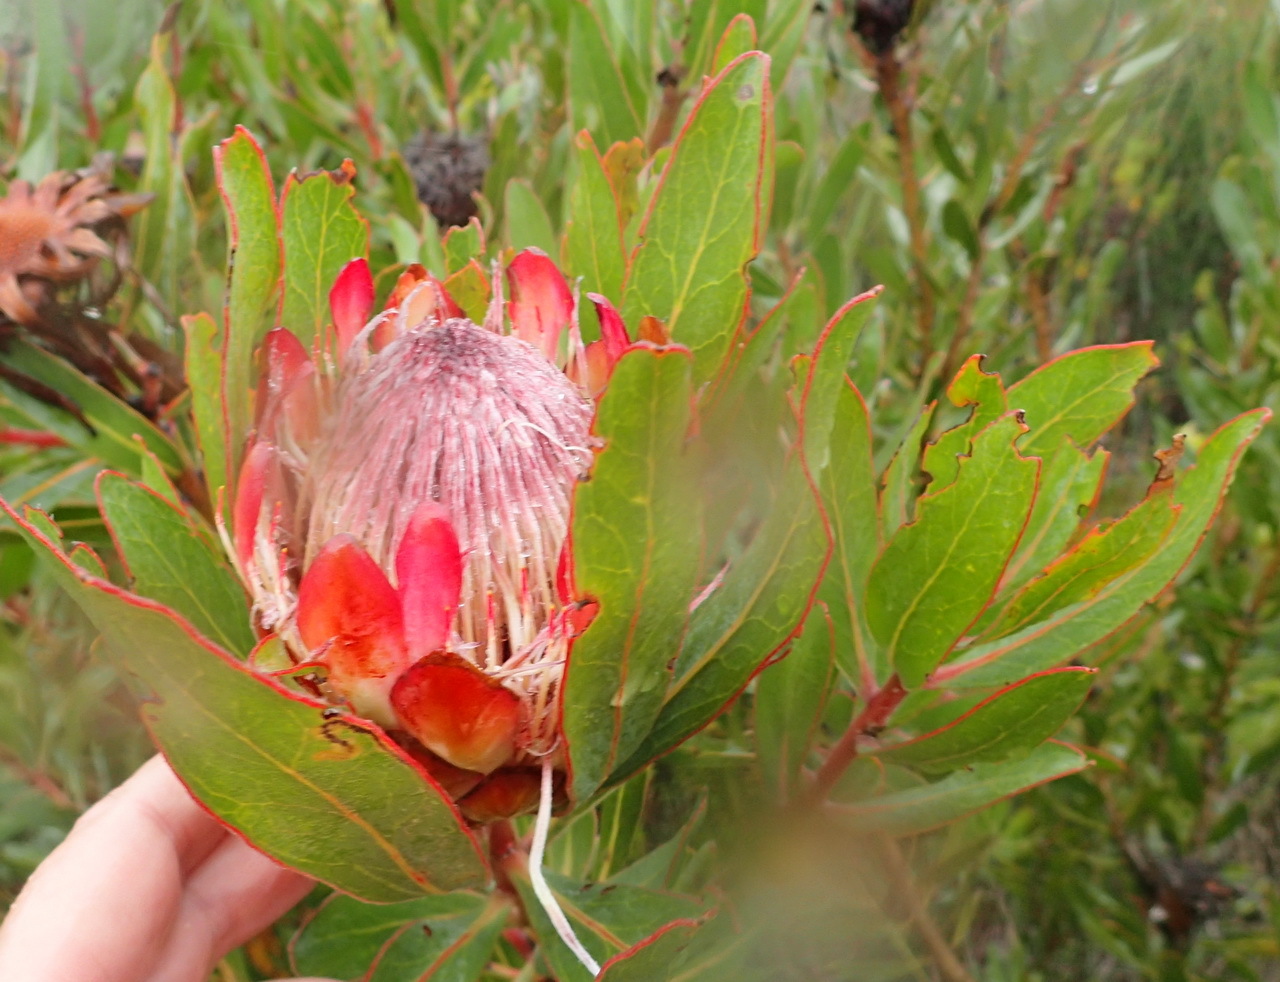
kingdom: Plantae
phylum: Tracheophyta
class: Magnoliopsida
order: Proteales
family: Proteaceae
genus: Protea
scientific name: Protea susannae
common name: Foetid-leaf sugarbush
